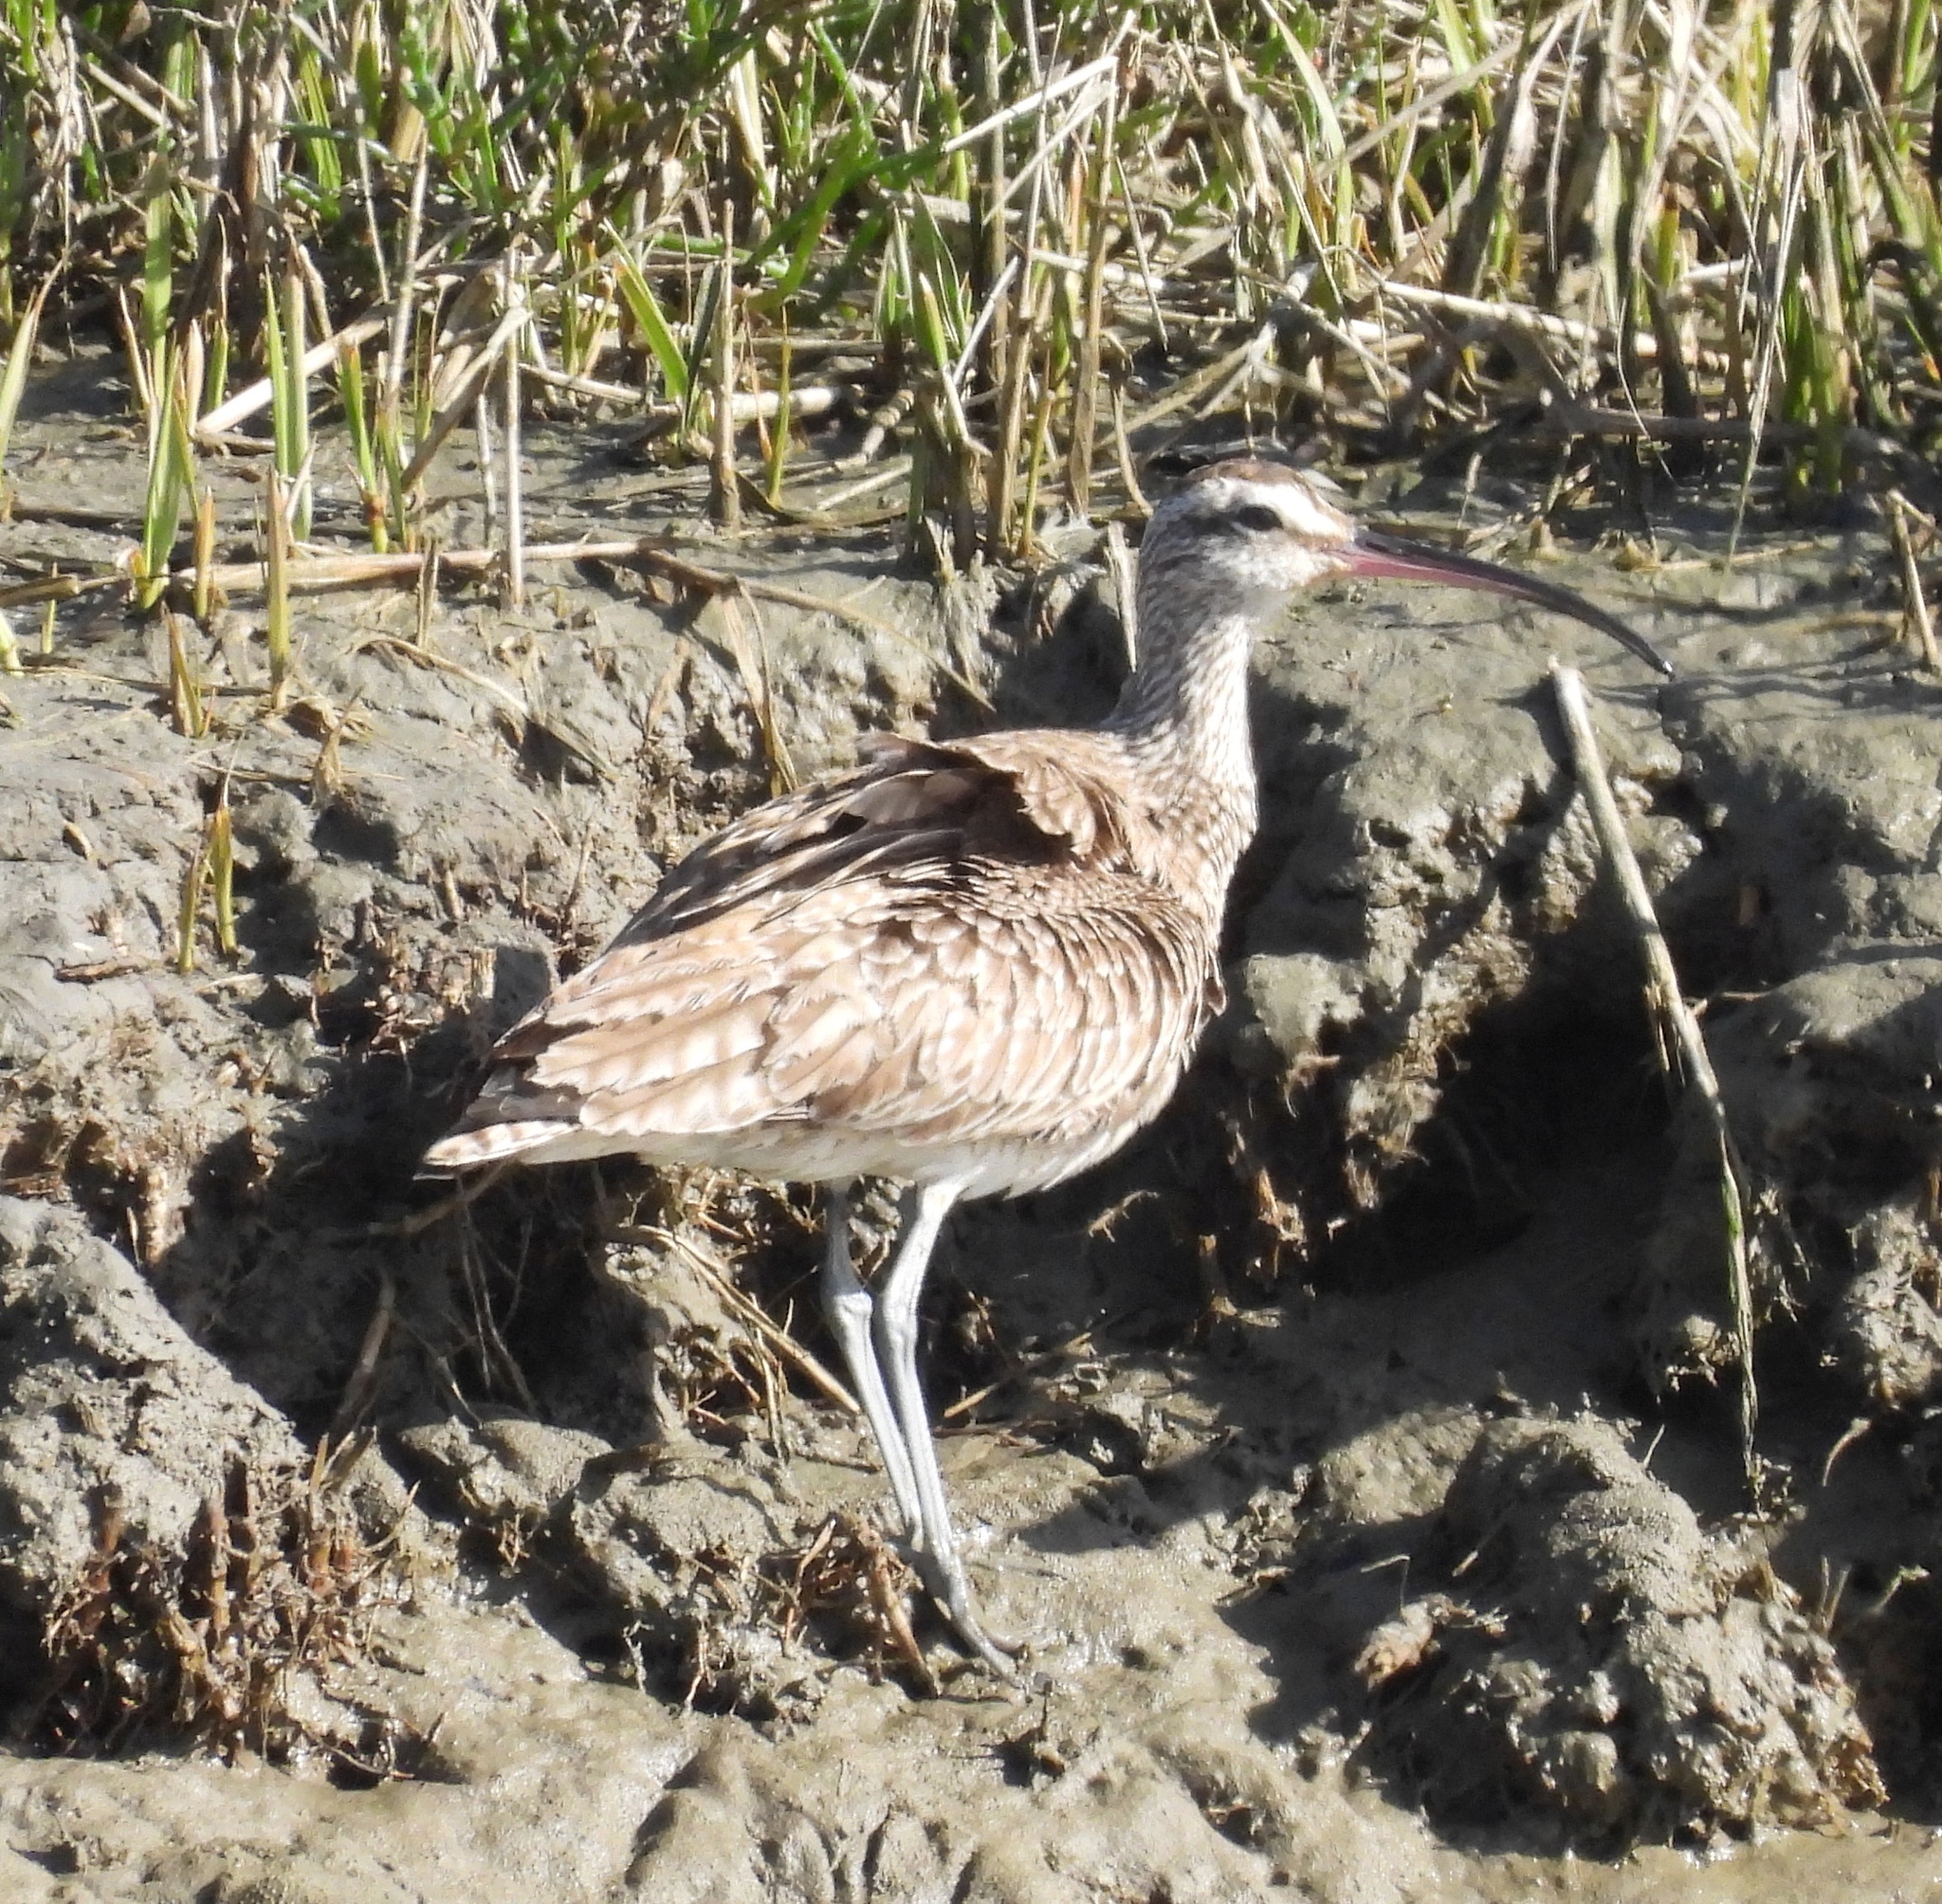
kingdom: Animalia
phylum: Chordata
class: Aves
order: Charadriiformes
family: Scolopacidae
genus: Numenius
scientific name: Numenius phaeopus
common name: Whimbrel
